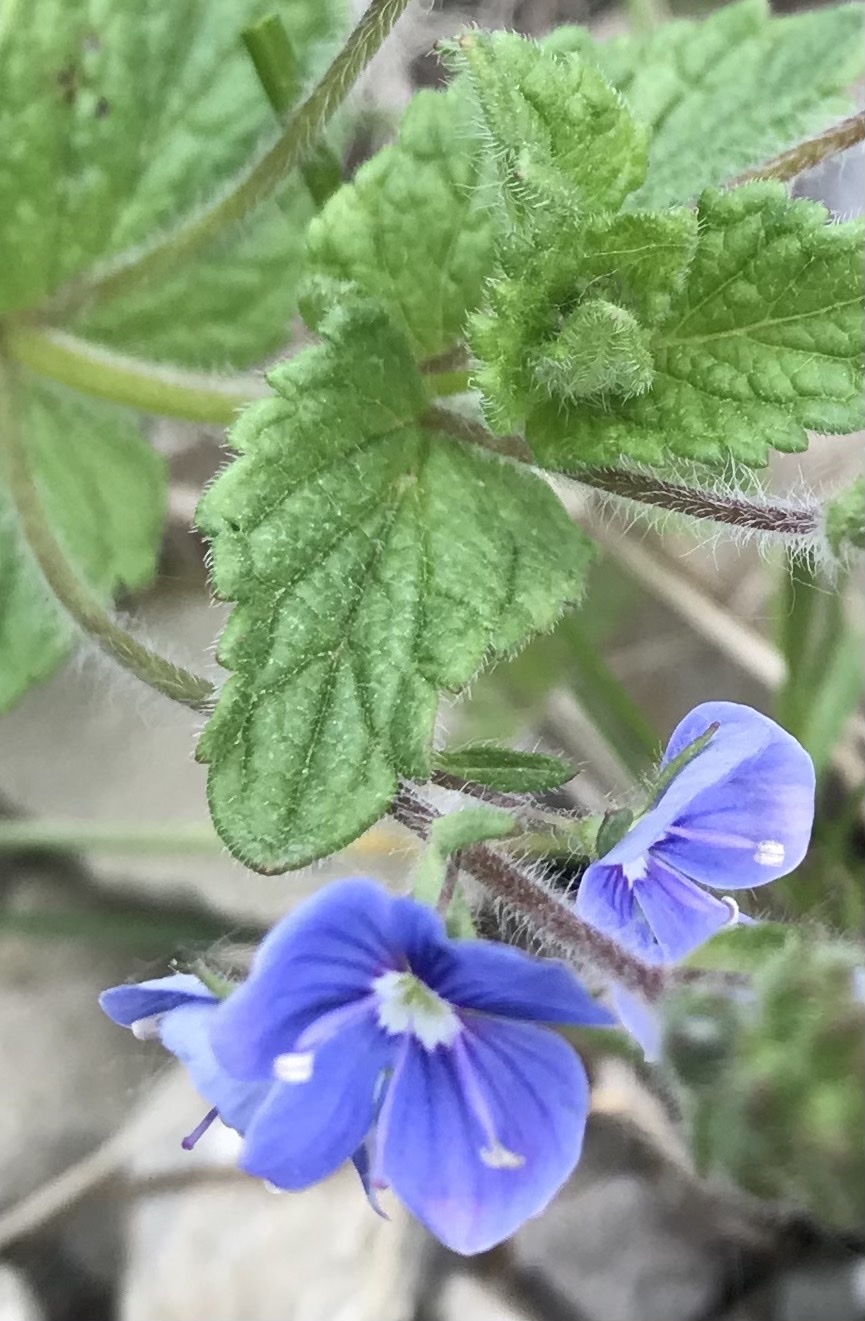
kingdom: Plantae
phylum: Tracheophyta
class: Magnoliopsida
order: Lamiales
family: Plantaginaceae
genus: Veronica
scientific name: Veronica chamaedrys
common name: Germander speedwell
